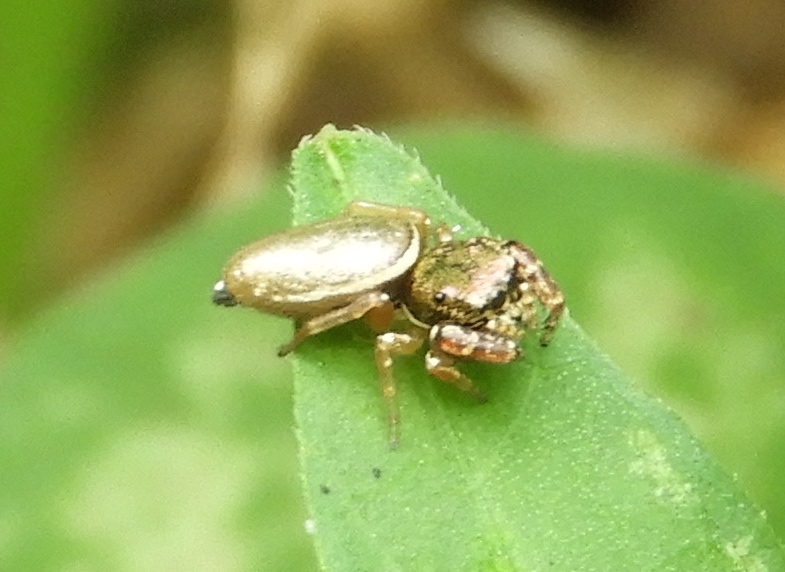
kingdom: Animalia
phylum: Arthropoda
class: Arachnida
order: Araneae
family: Salticidae
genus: Sassacus
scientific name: Sassacus vitis
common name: Jumping spiders
